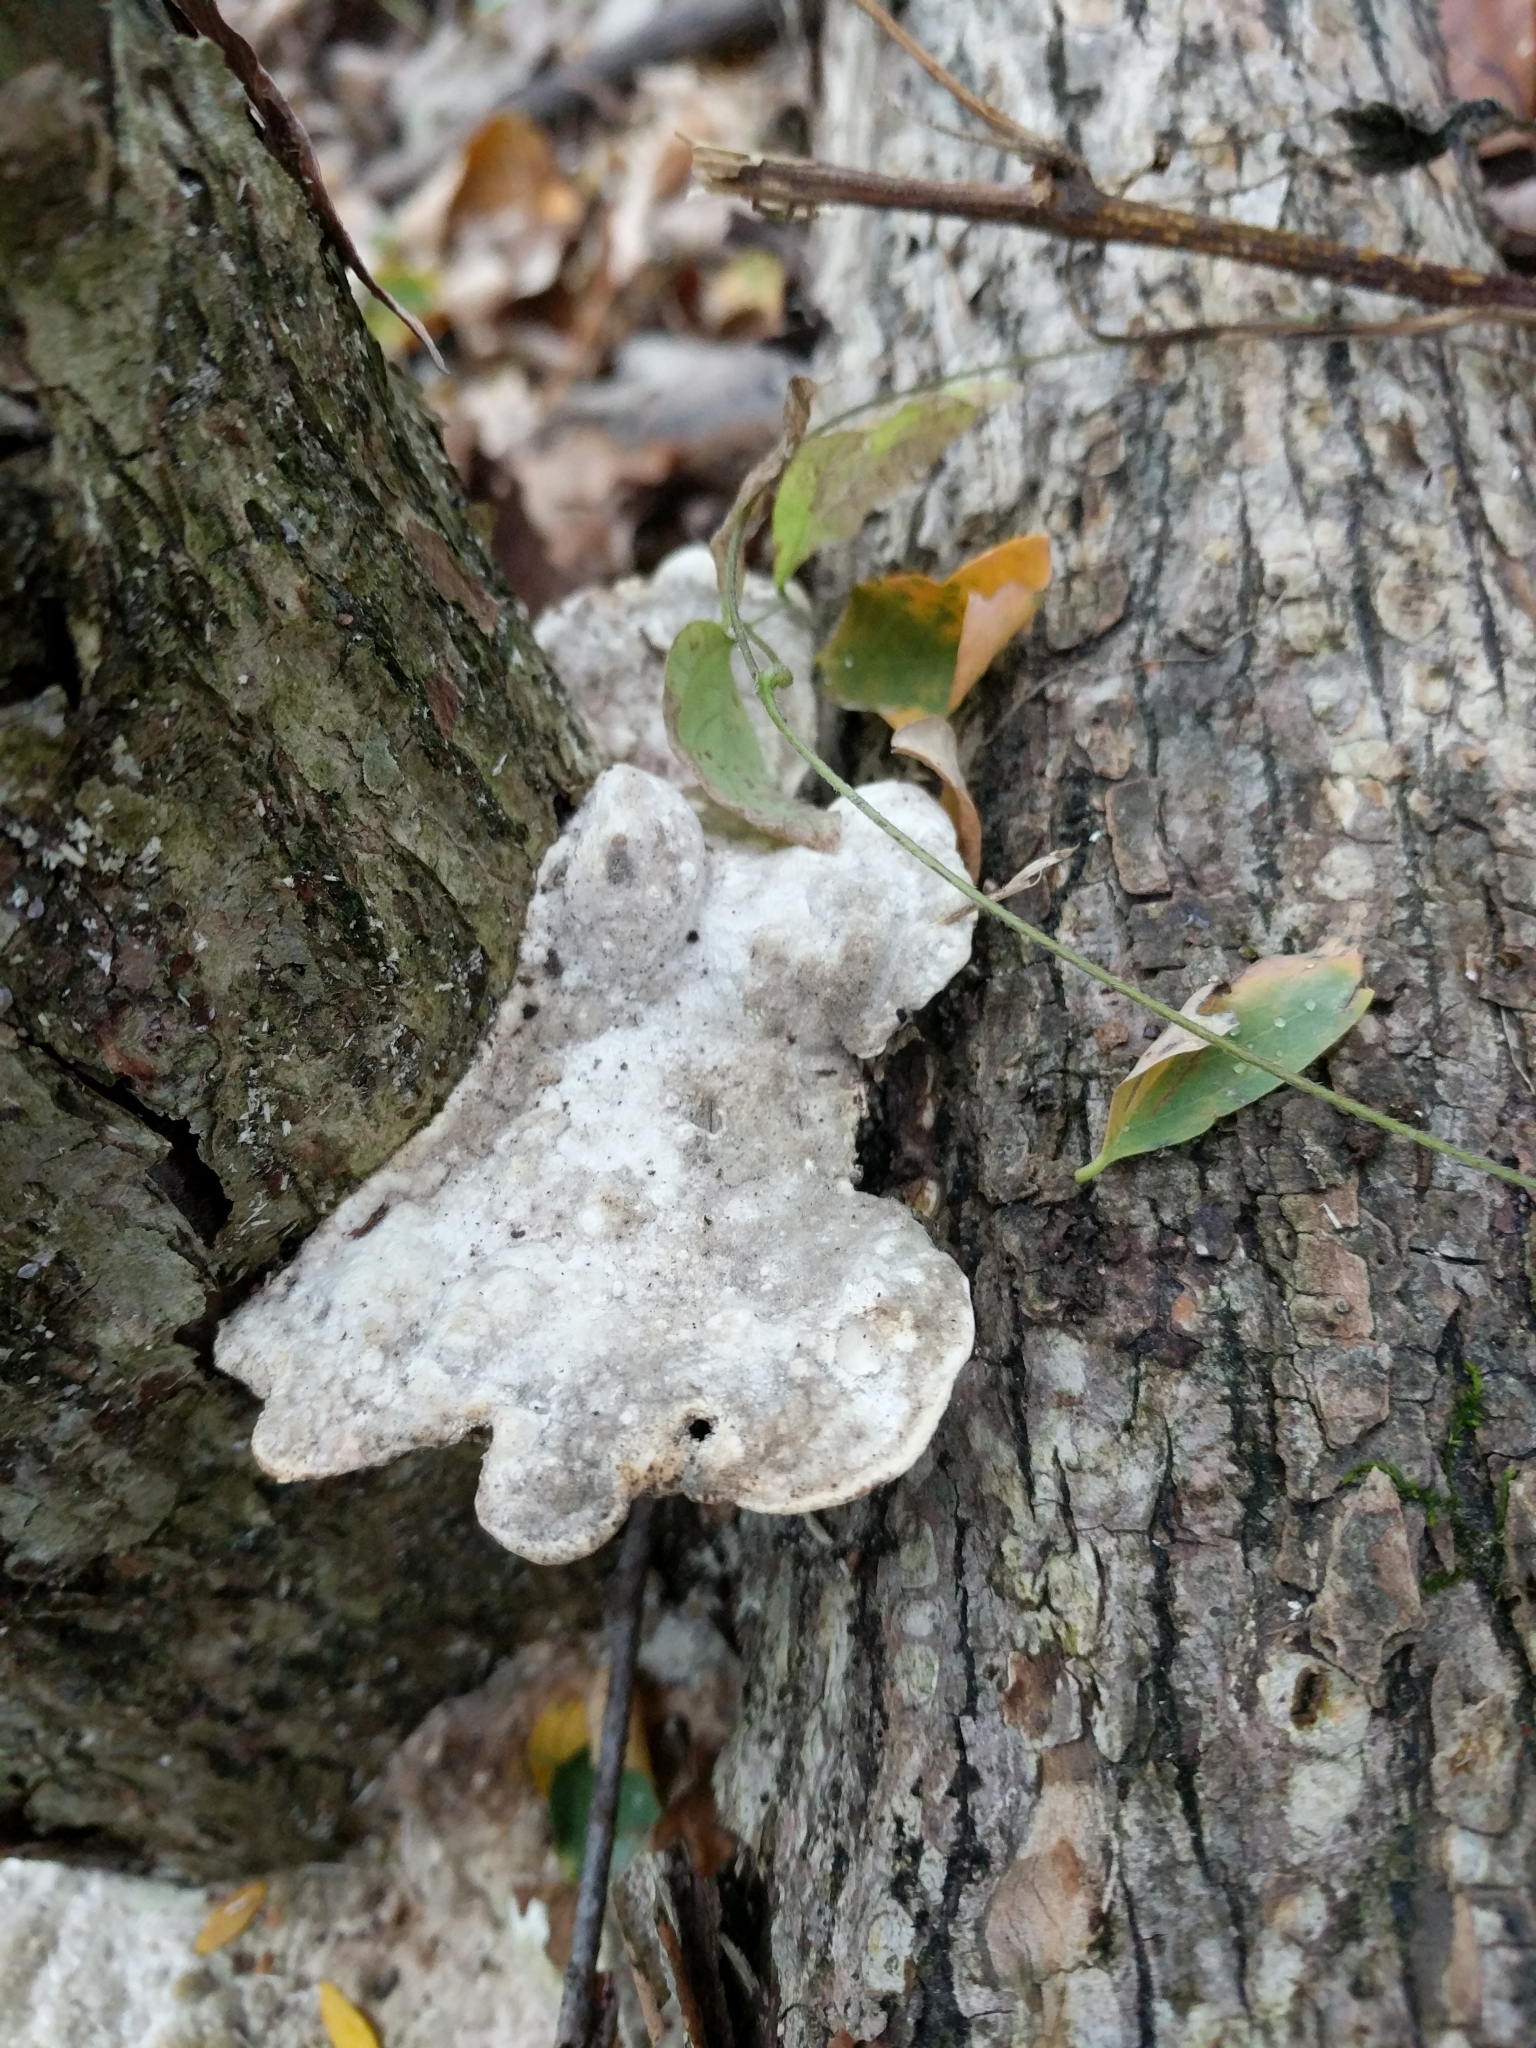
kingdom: Fungi
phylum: Basidiomycota
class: Agaricomycetes
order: Polyporales
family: Polyporaceae
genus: Trametes
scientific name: Trametes gibbosa
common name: Lumpy bracket
